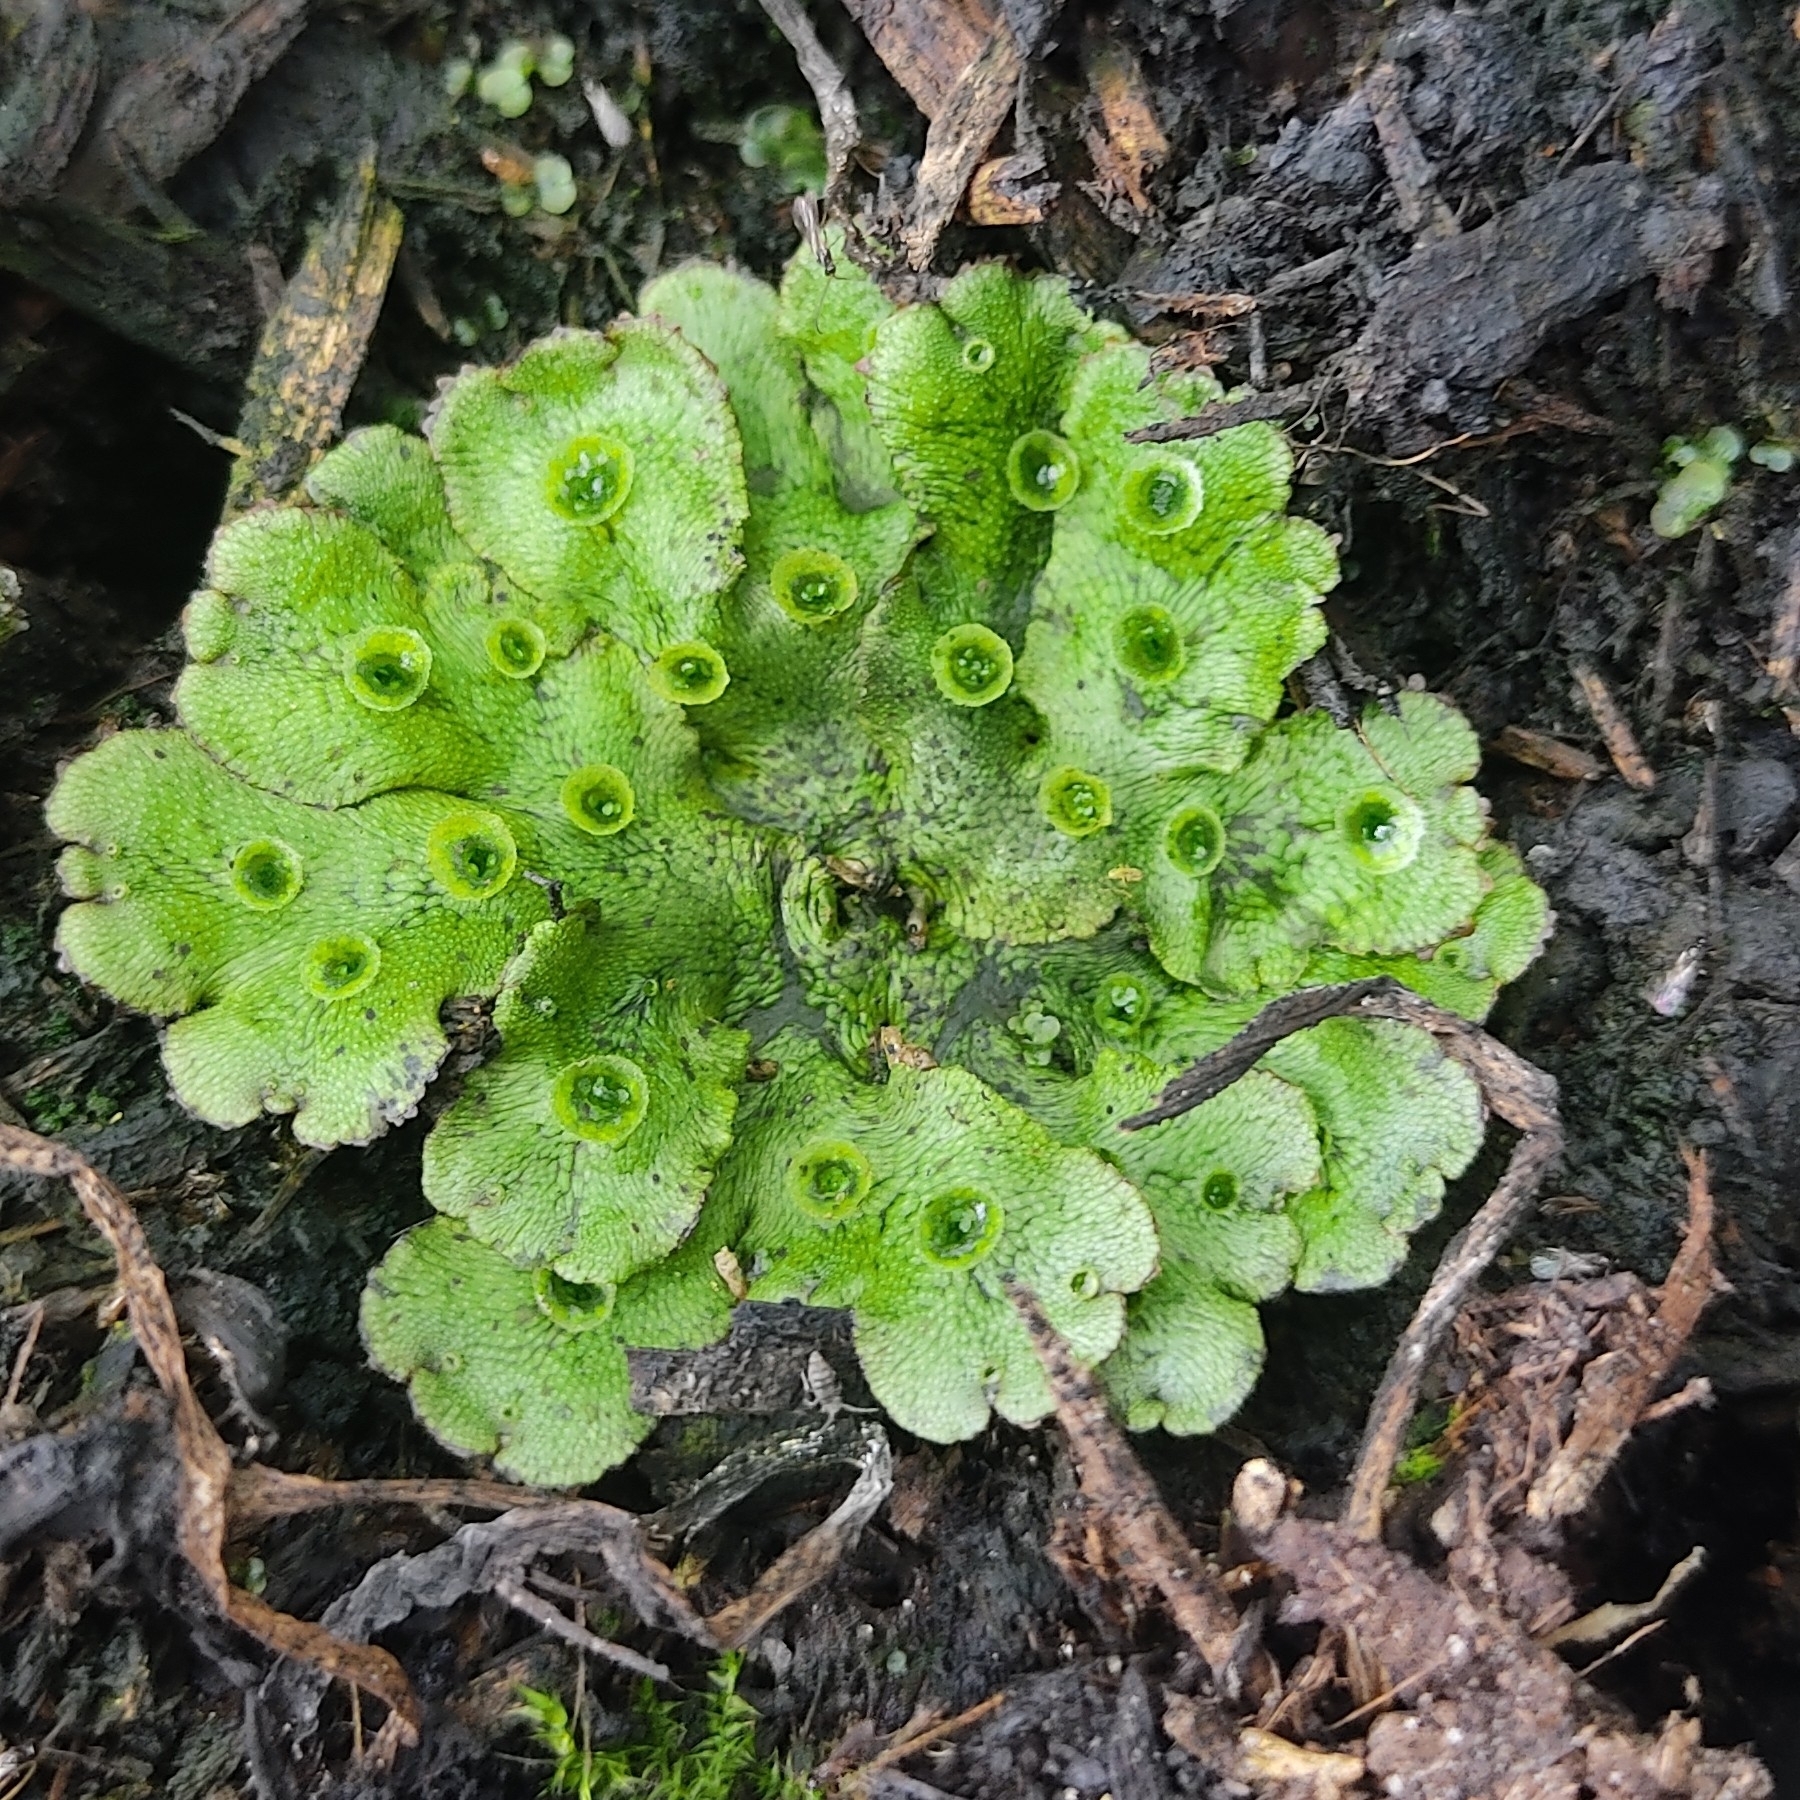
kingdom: Plantae
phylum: Marchantiophyta
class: Marchantiopsida
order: Marchantiales
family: Marchantiaceae
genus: Marchantia
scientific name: Marchantia polymorpha
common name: Common liverwort
